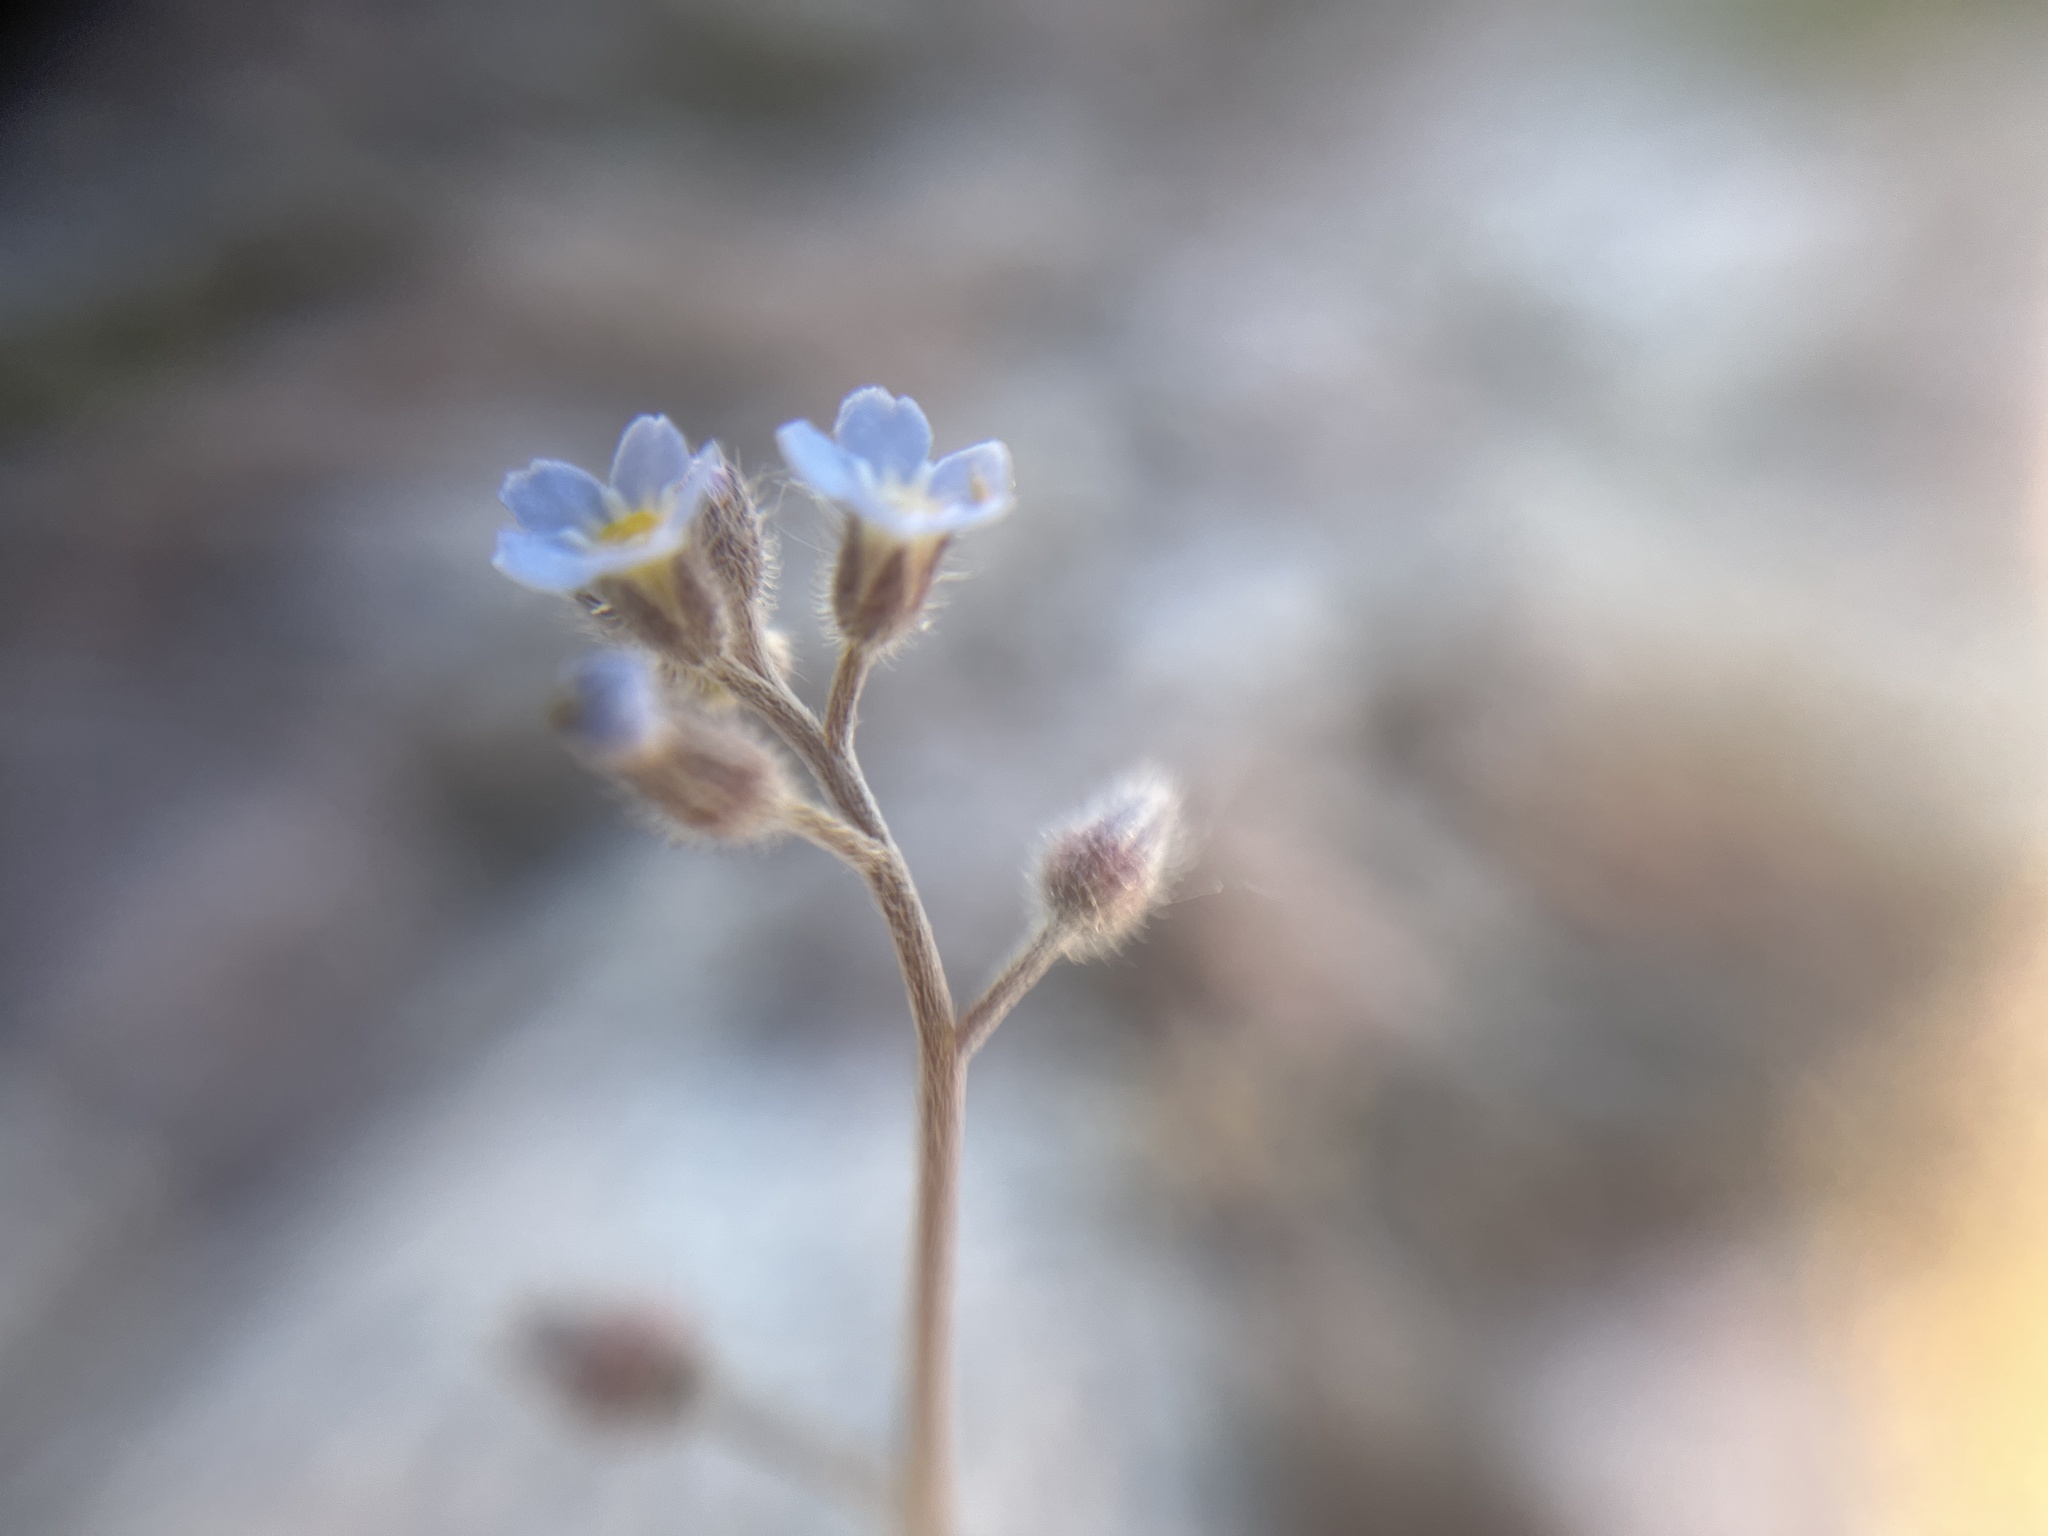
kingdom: Plantae
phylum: Tracheophyta
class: Magnoliopsida
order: Boraginales
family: Boraginaceae
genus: Myosotis
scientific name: Myosotis arvensis
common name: Field forget-me-not
